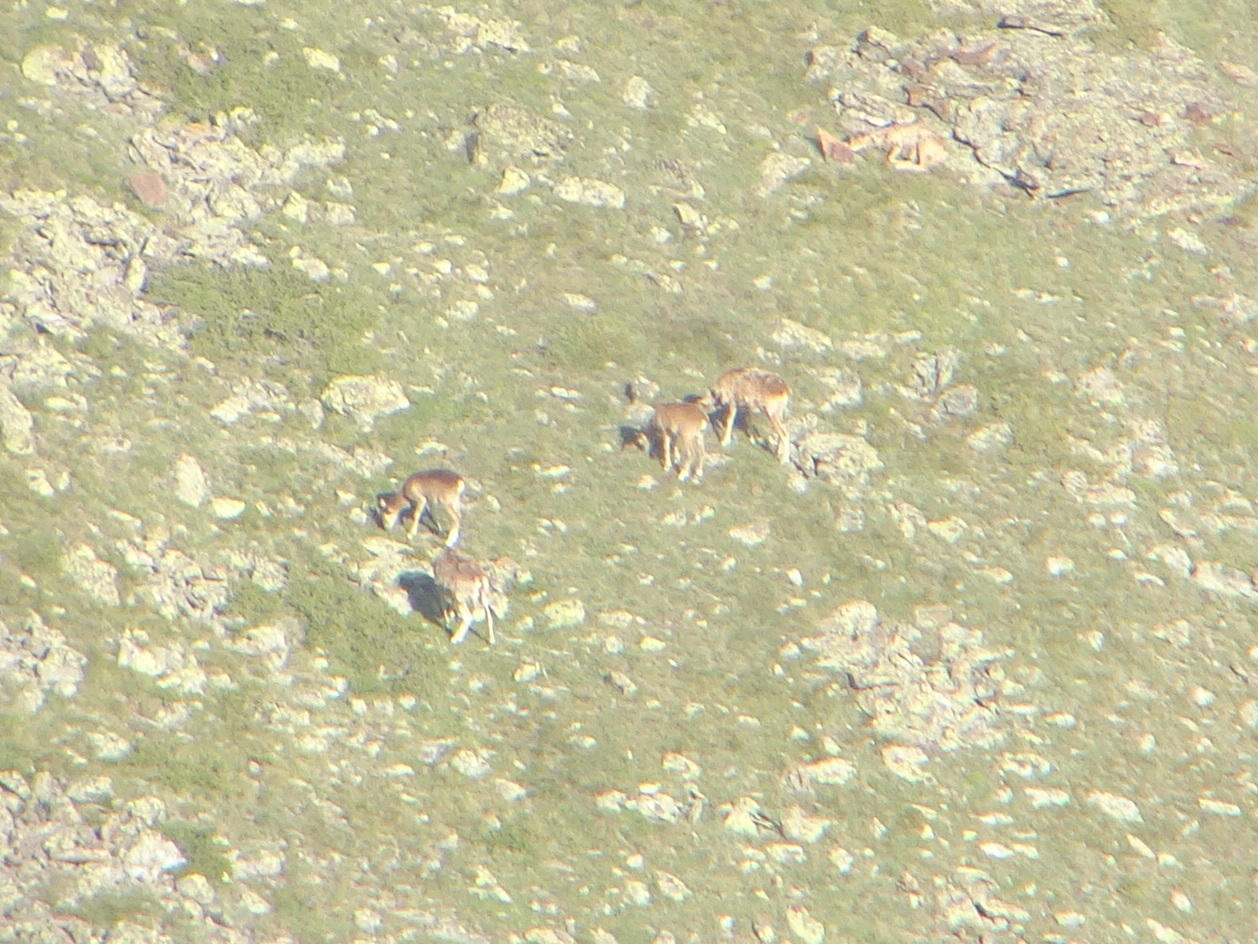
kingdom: Animalia
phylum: Chordata
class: Mammalia
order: Artiodactyla
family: Bovidae
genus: Ovis
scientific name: Ovis aries
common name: Domestic sheep
